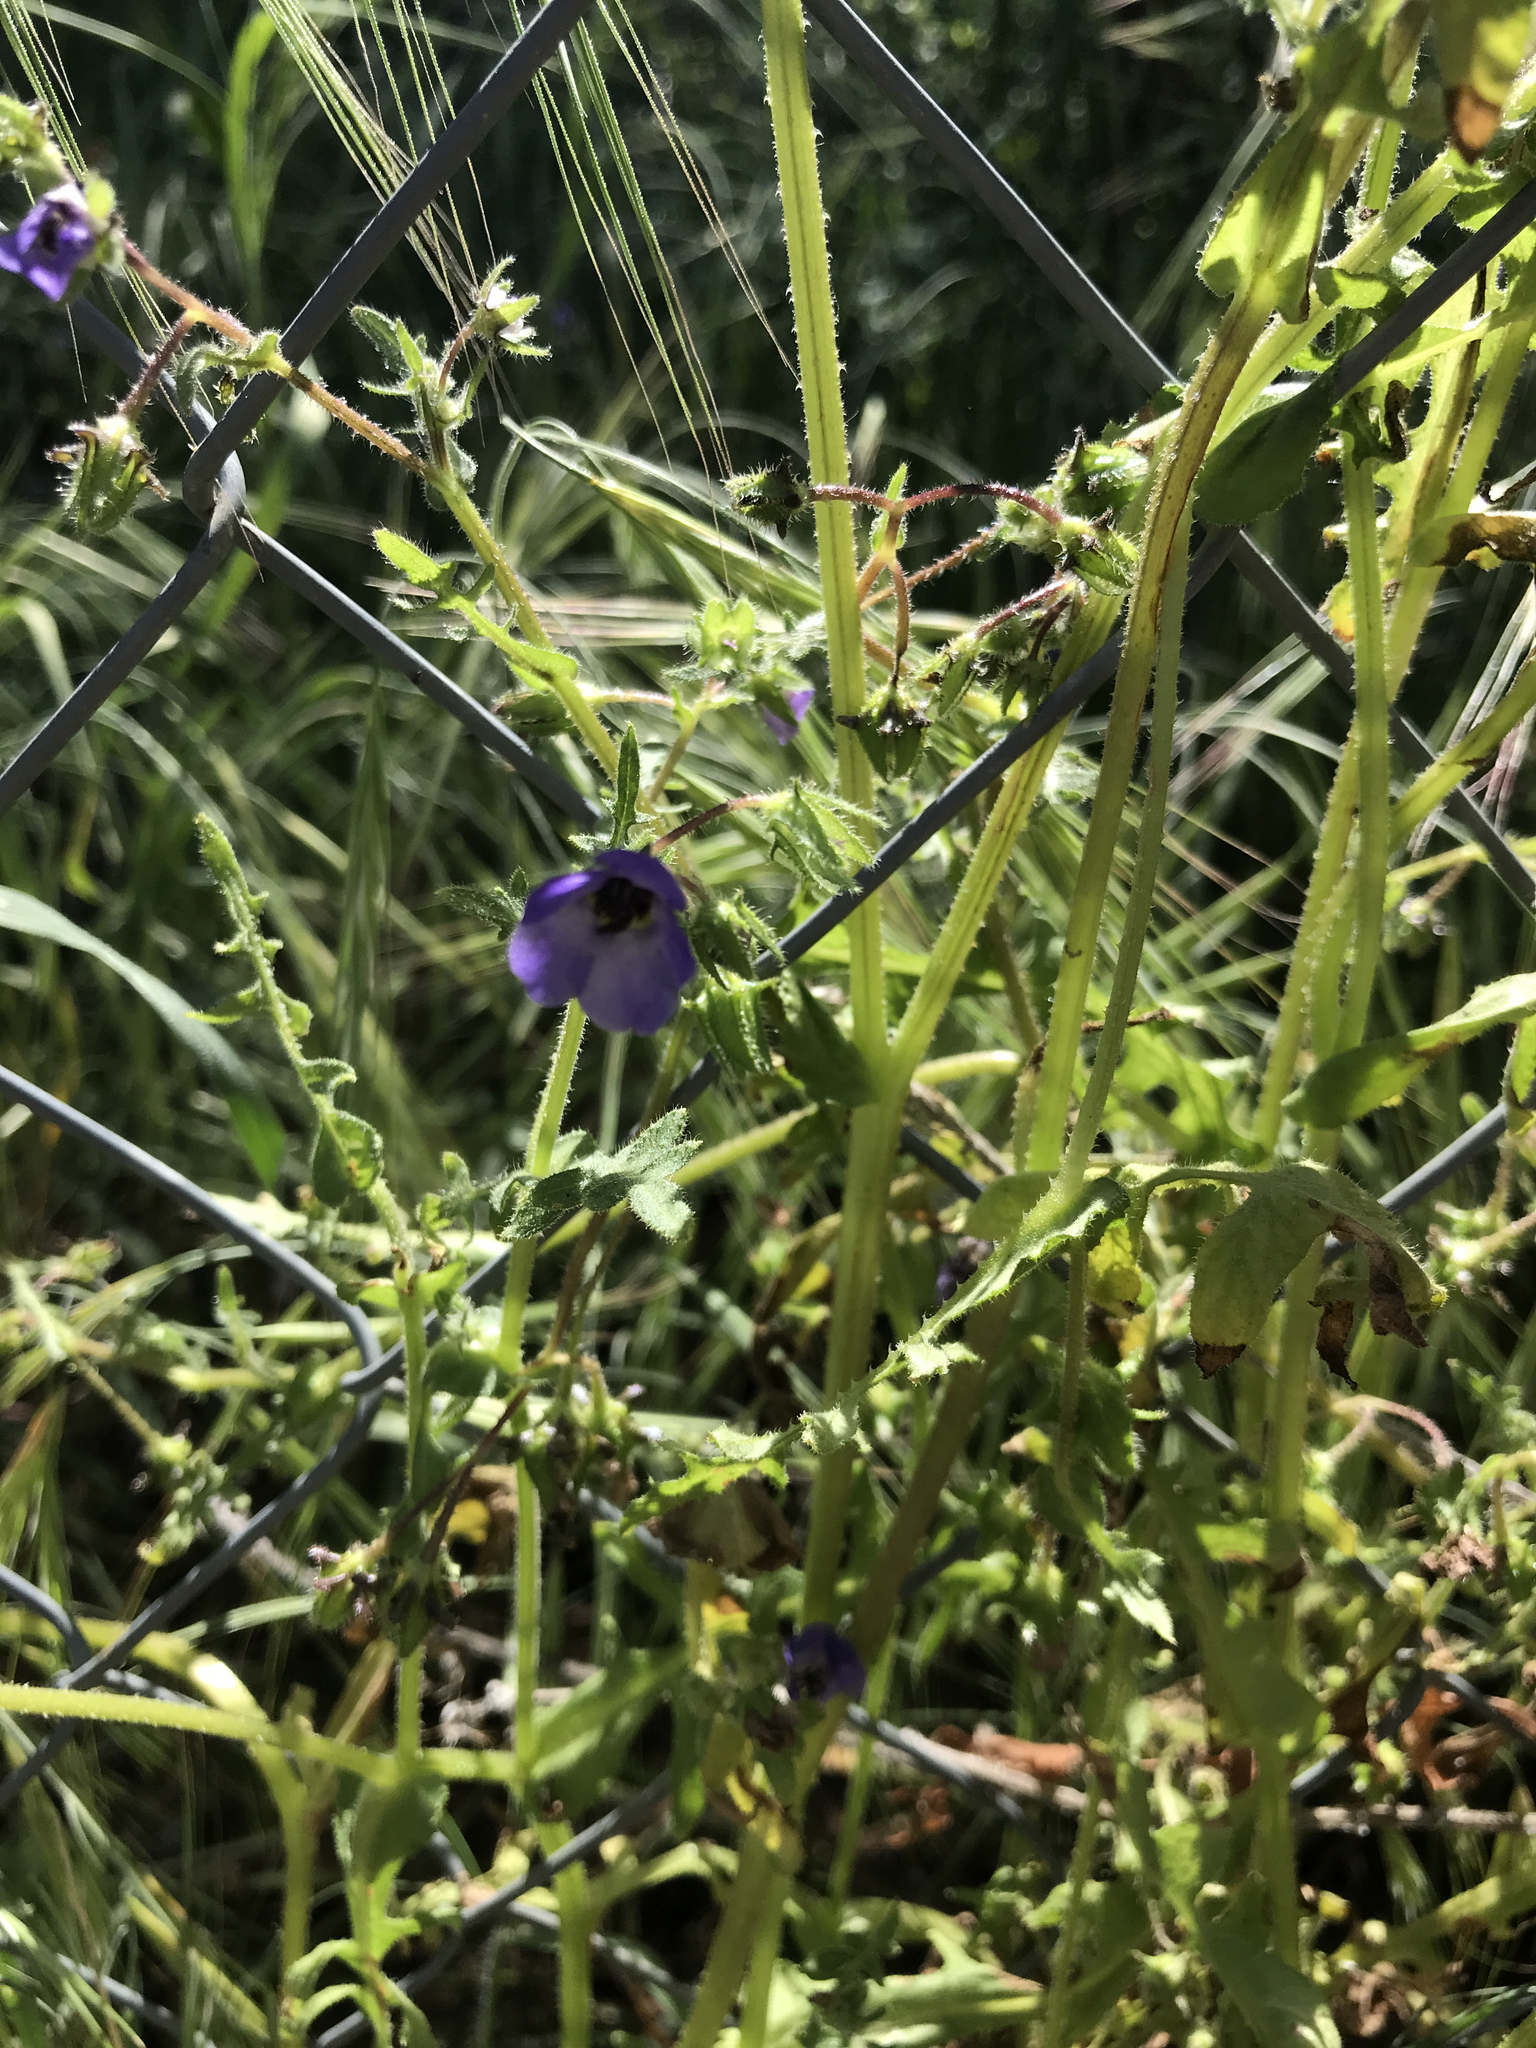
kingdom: Plantae
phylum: Tracheophyta
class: Magnoliopsida
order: Boraginales
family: Hydrophyllaceae
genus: Pholistoma
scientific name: Pholistoma auritum
